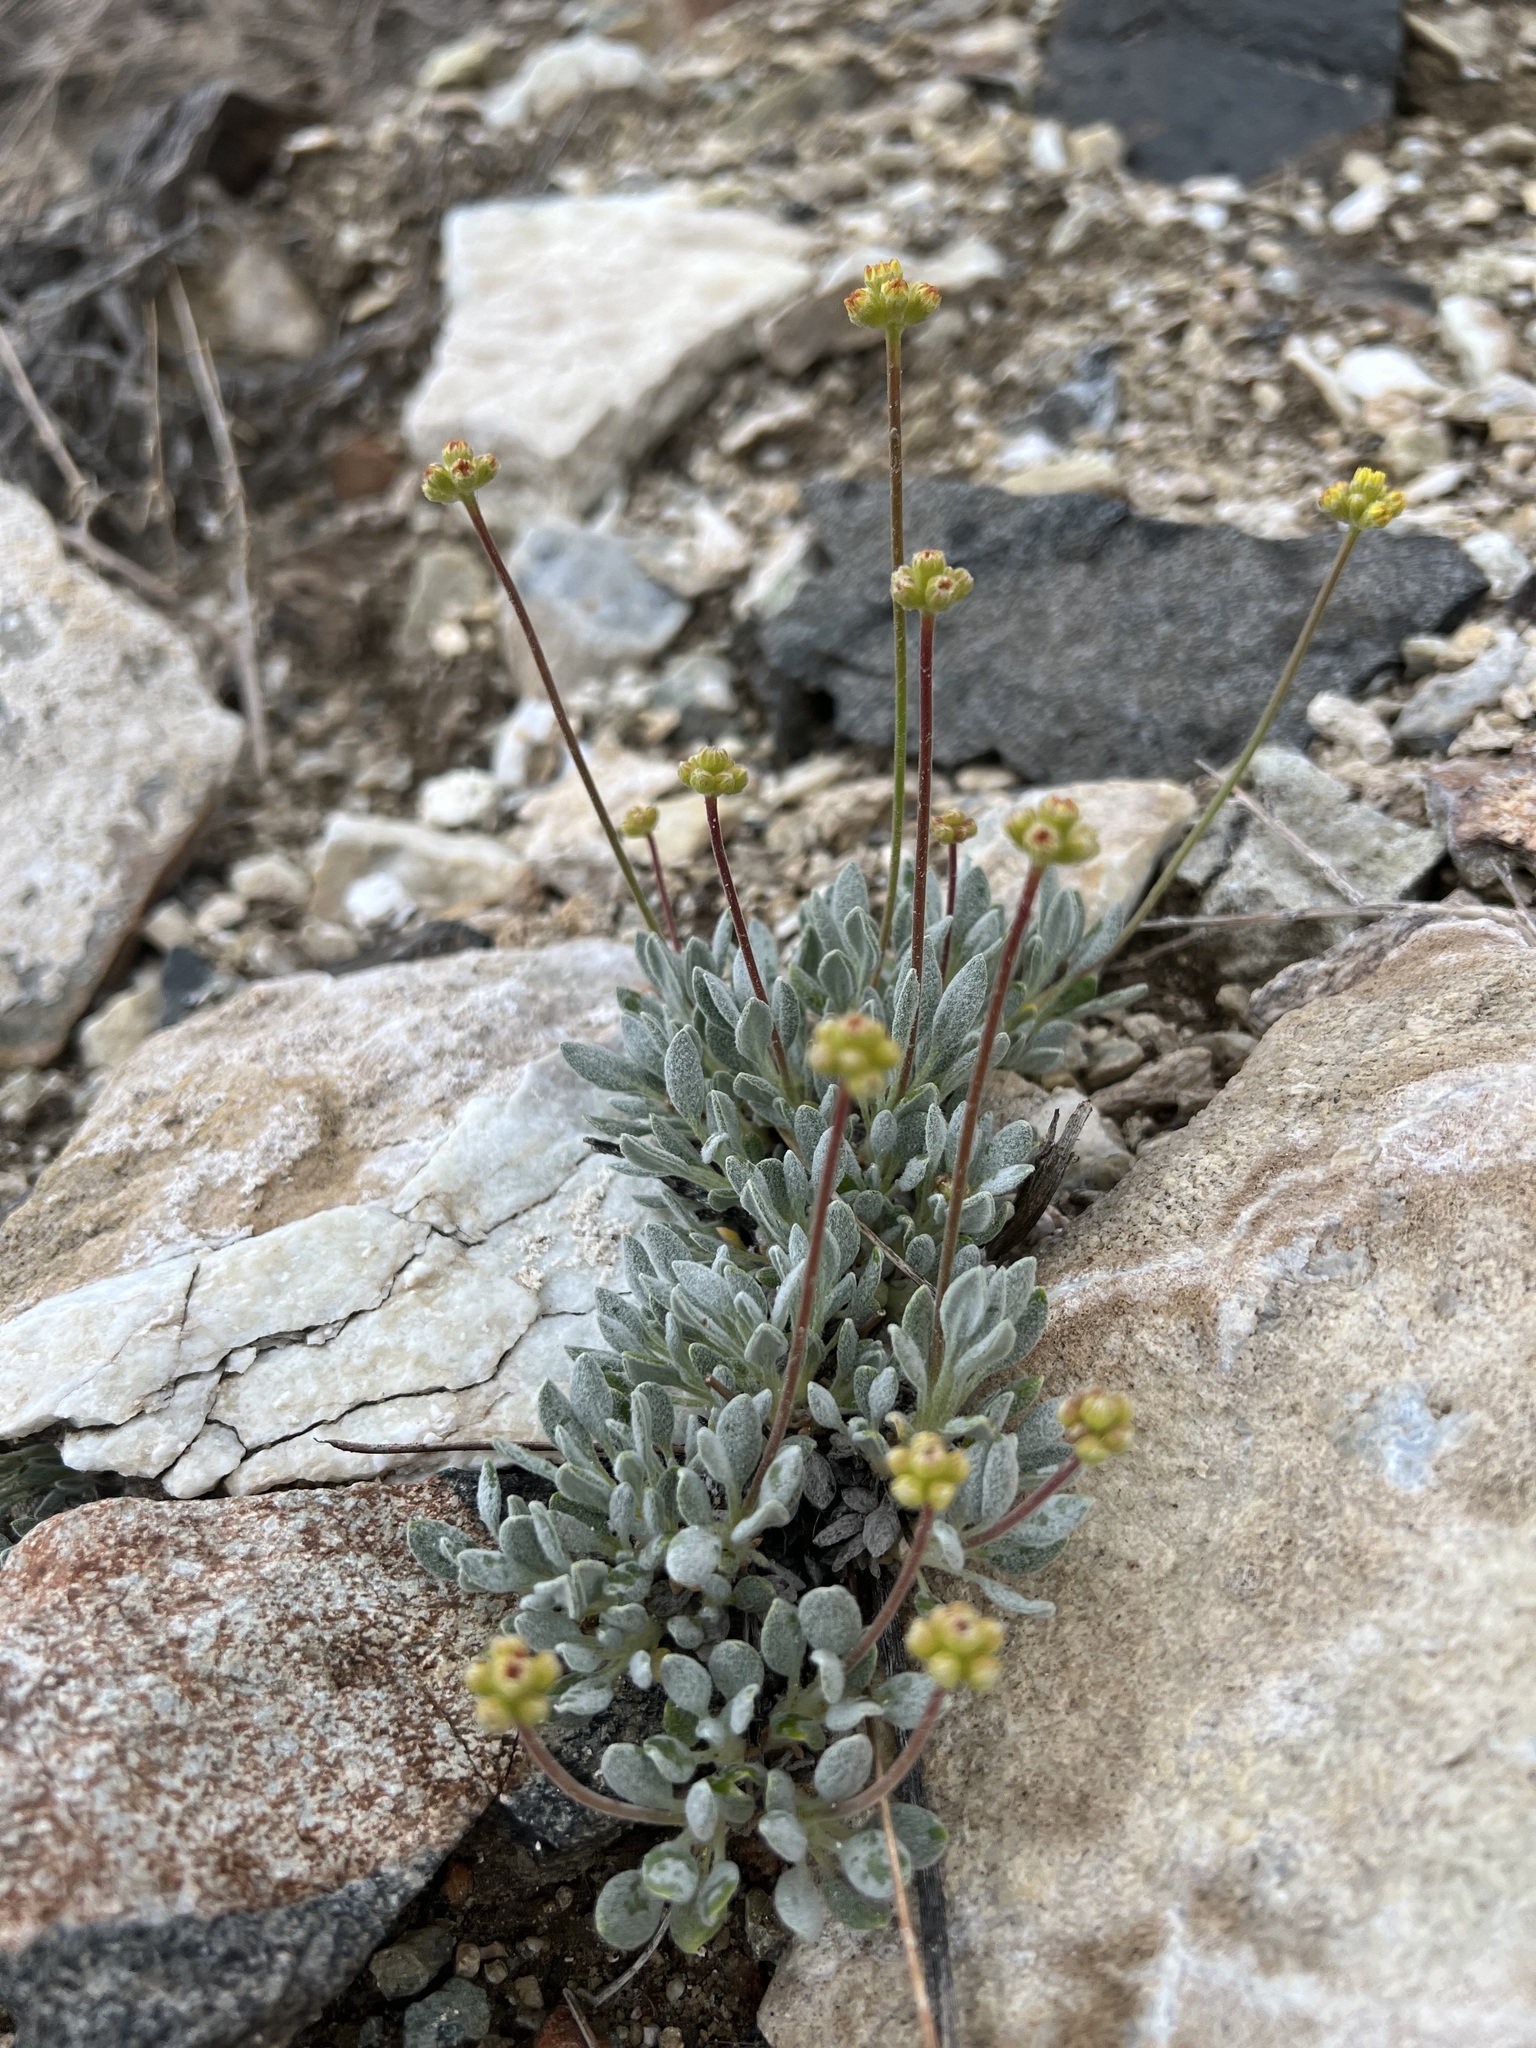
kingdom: Plantae
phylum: Tracheophyta
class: Magnoliopsida
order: Caryophyllales
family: Polygonaceae
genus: Eriogonum
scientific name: Eriogonum rosense
